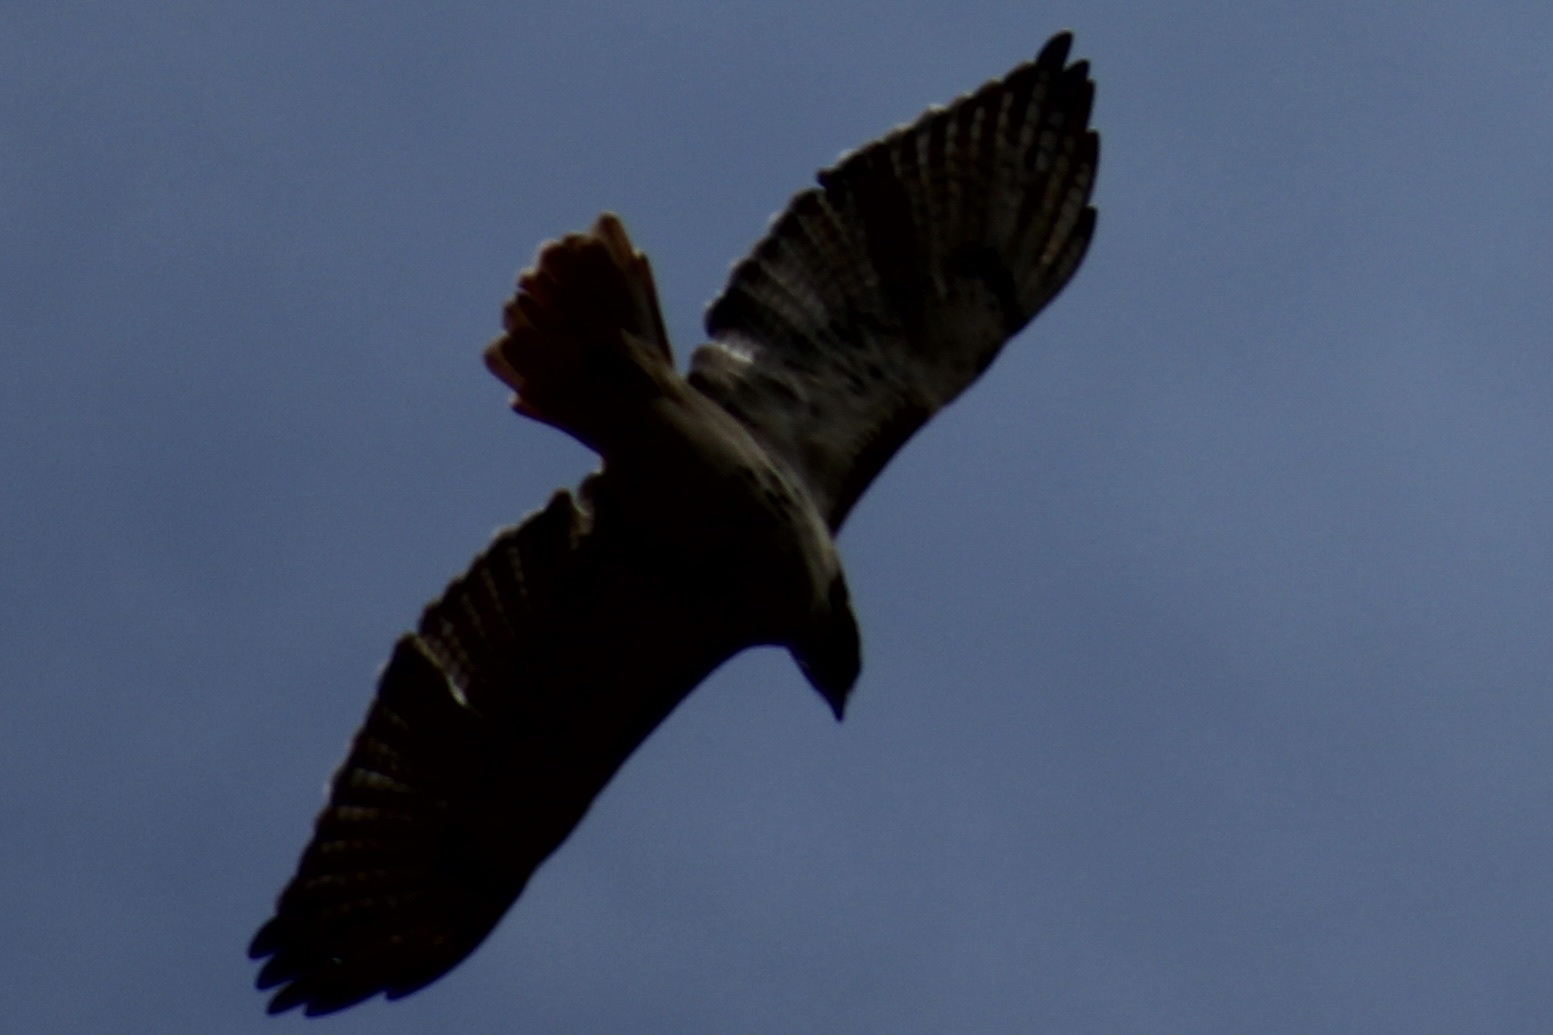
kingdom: Animalia
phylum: Chordata
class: Aves
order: Accipitriformes
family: Accipitridae
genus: Buteo
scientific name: Buteo jamaicensis
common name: Red-tailed hawk
